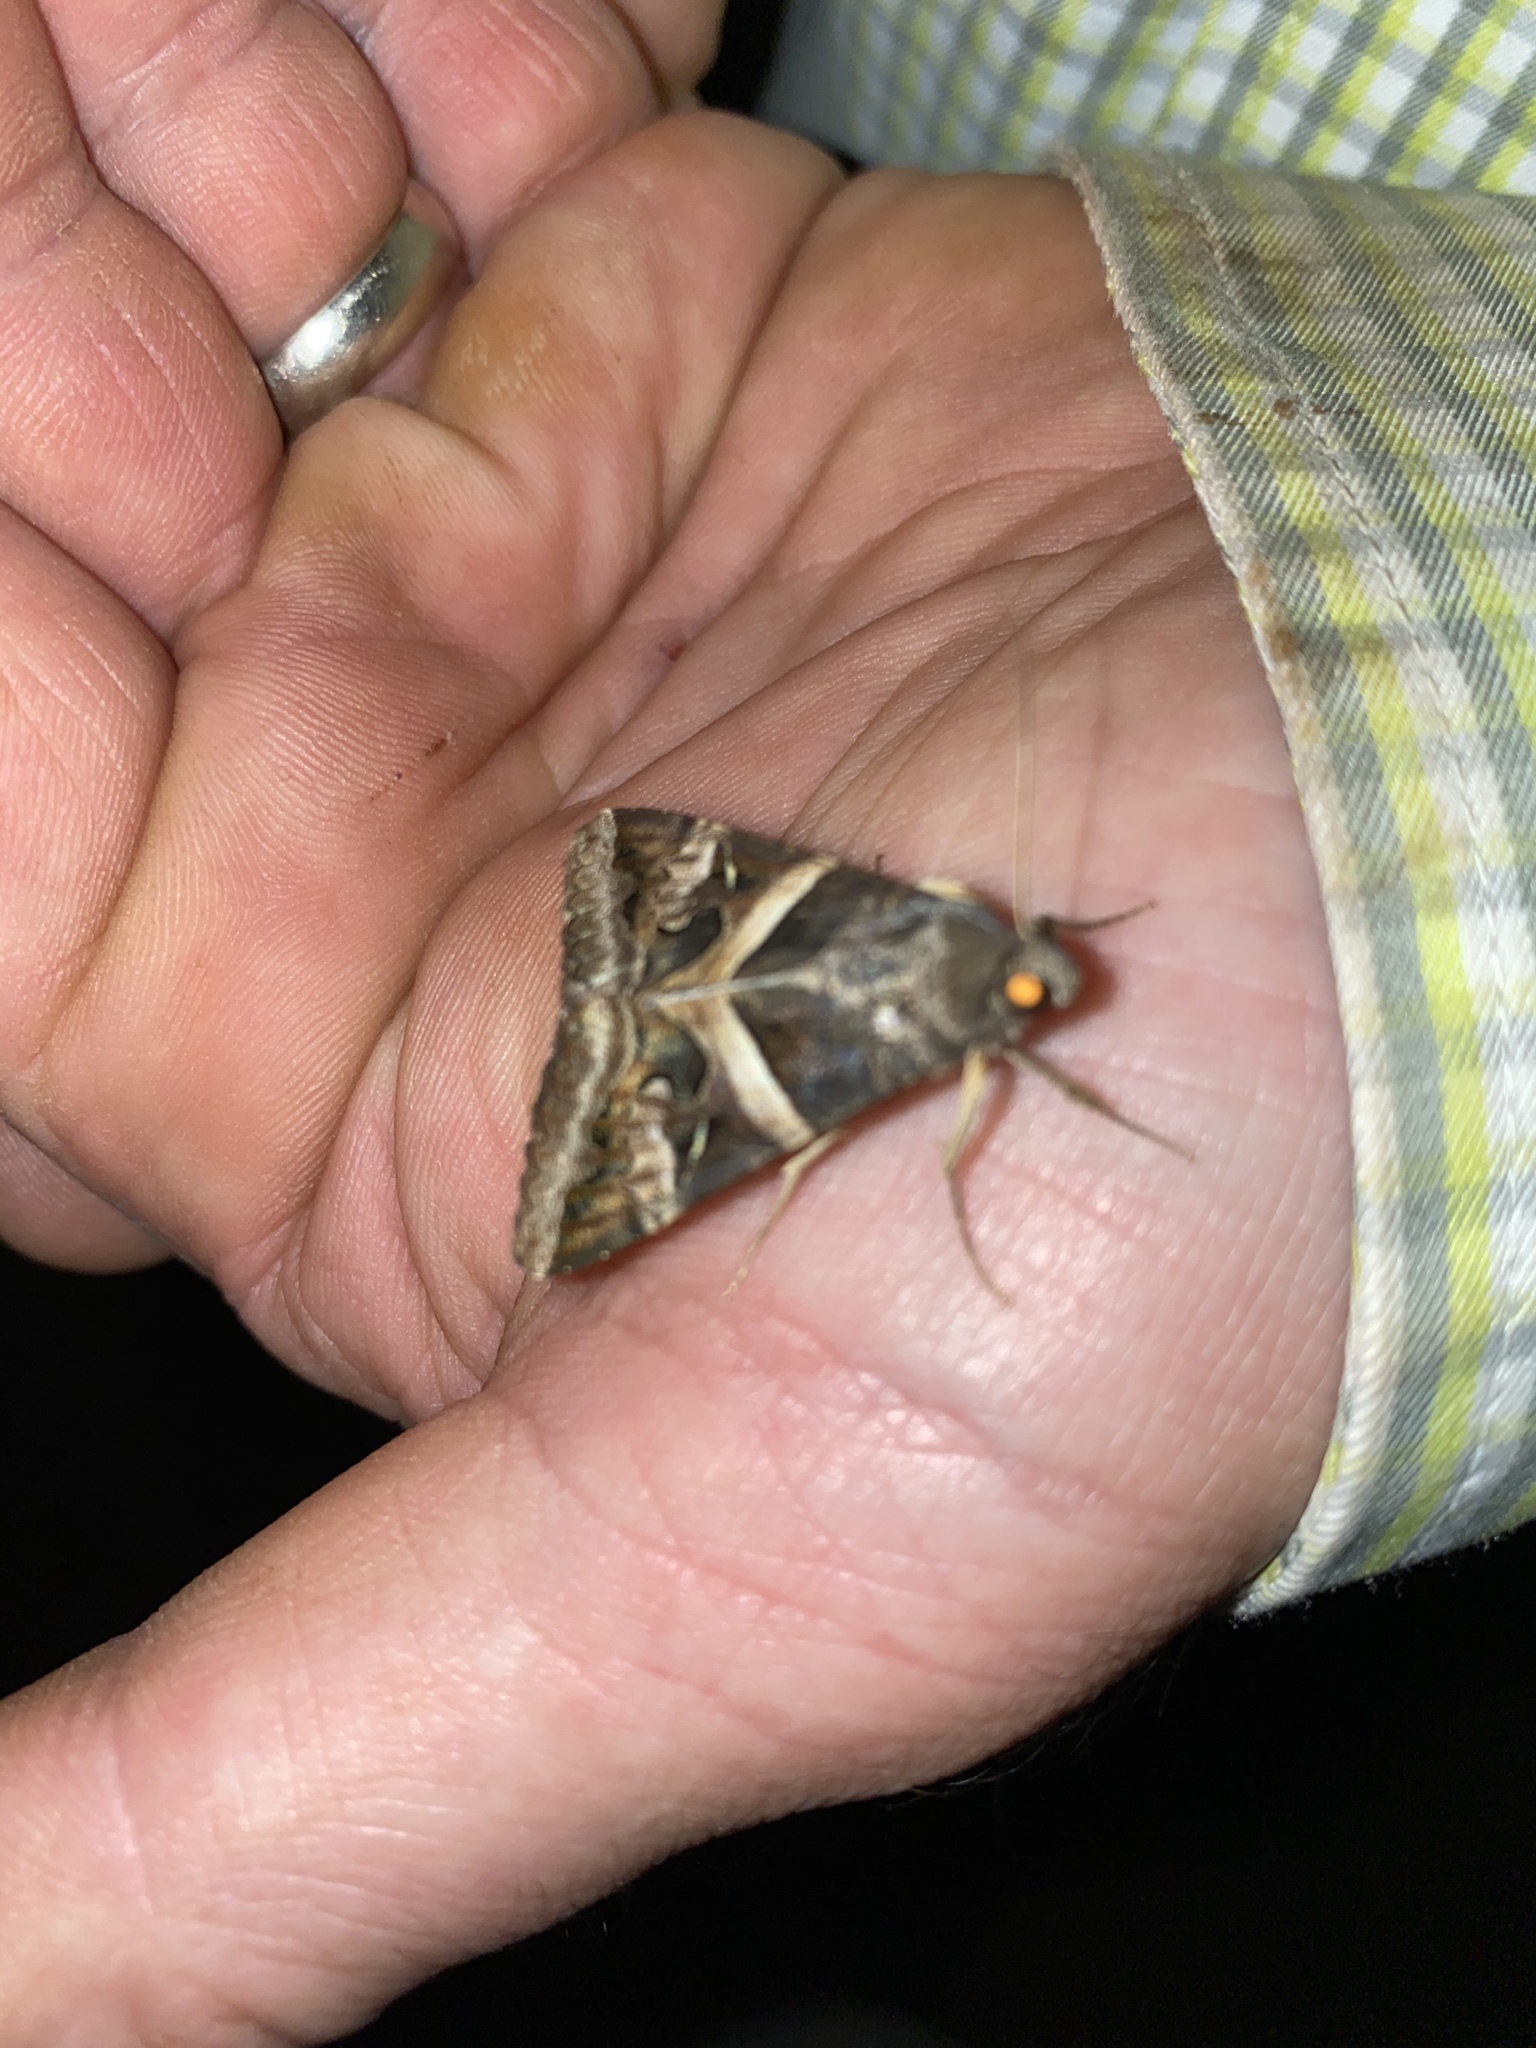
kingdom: Animalia
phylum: Arthropoda
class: Insecta
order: Lepidoptera
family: Erebidae
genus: Melipotis
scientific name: Melipotis indomita
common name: Moth
